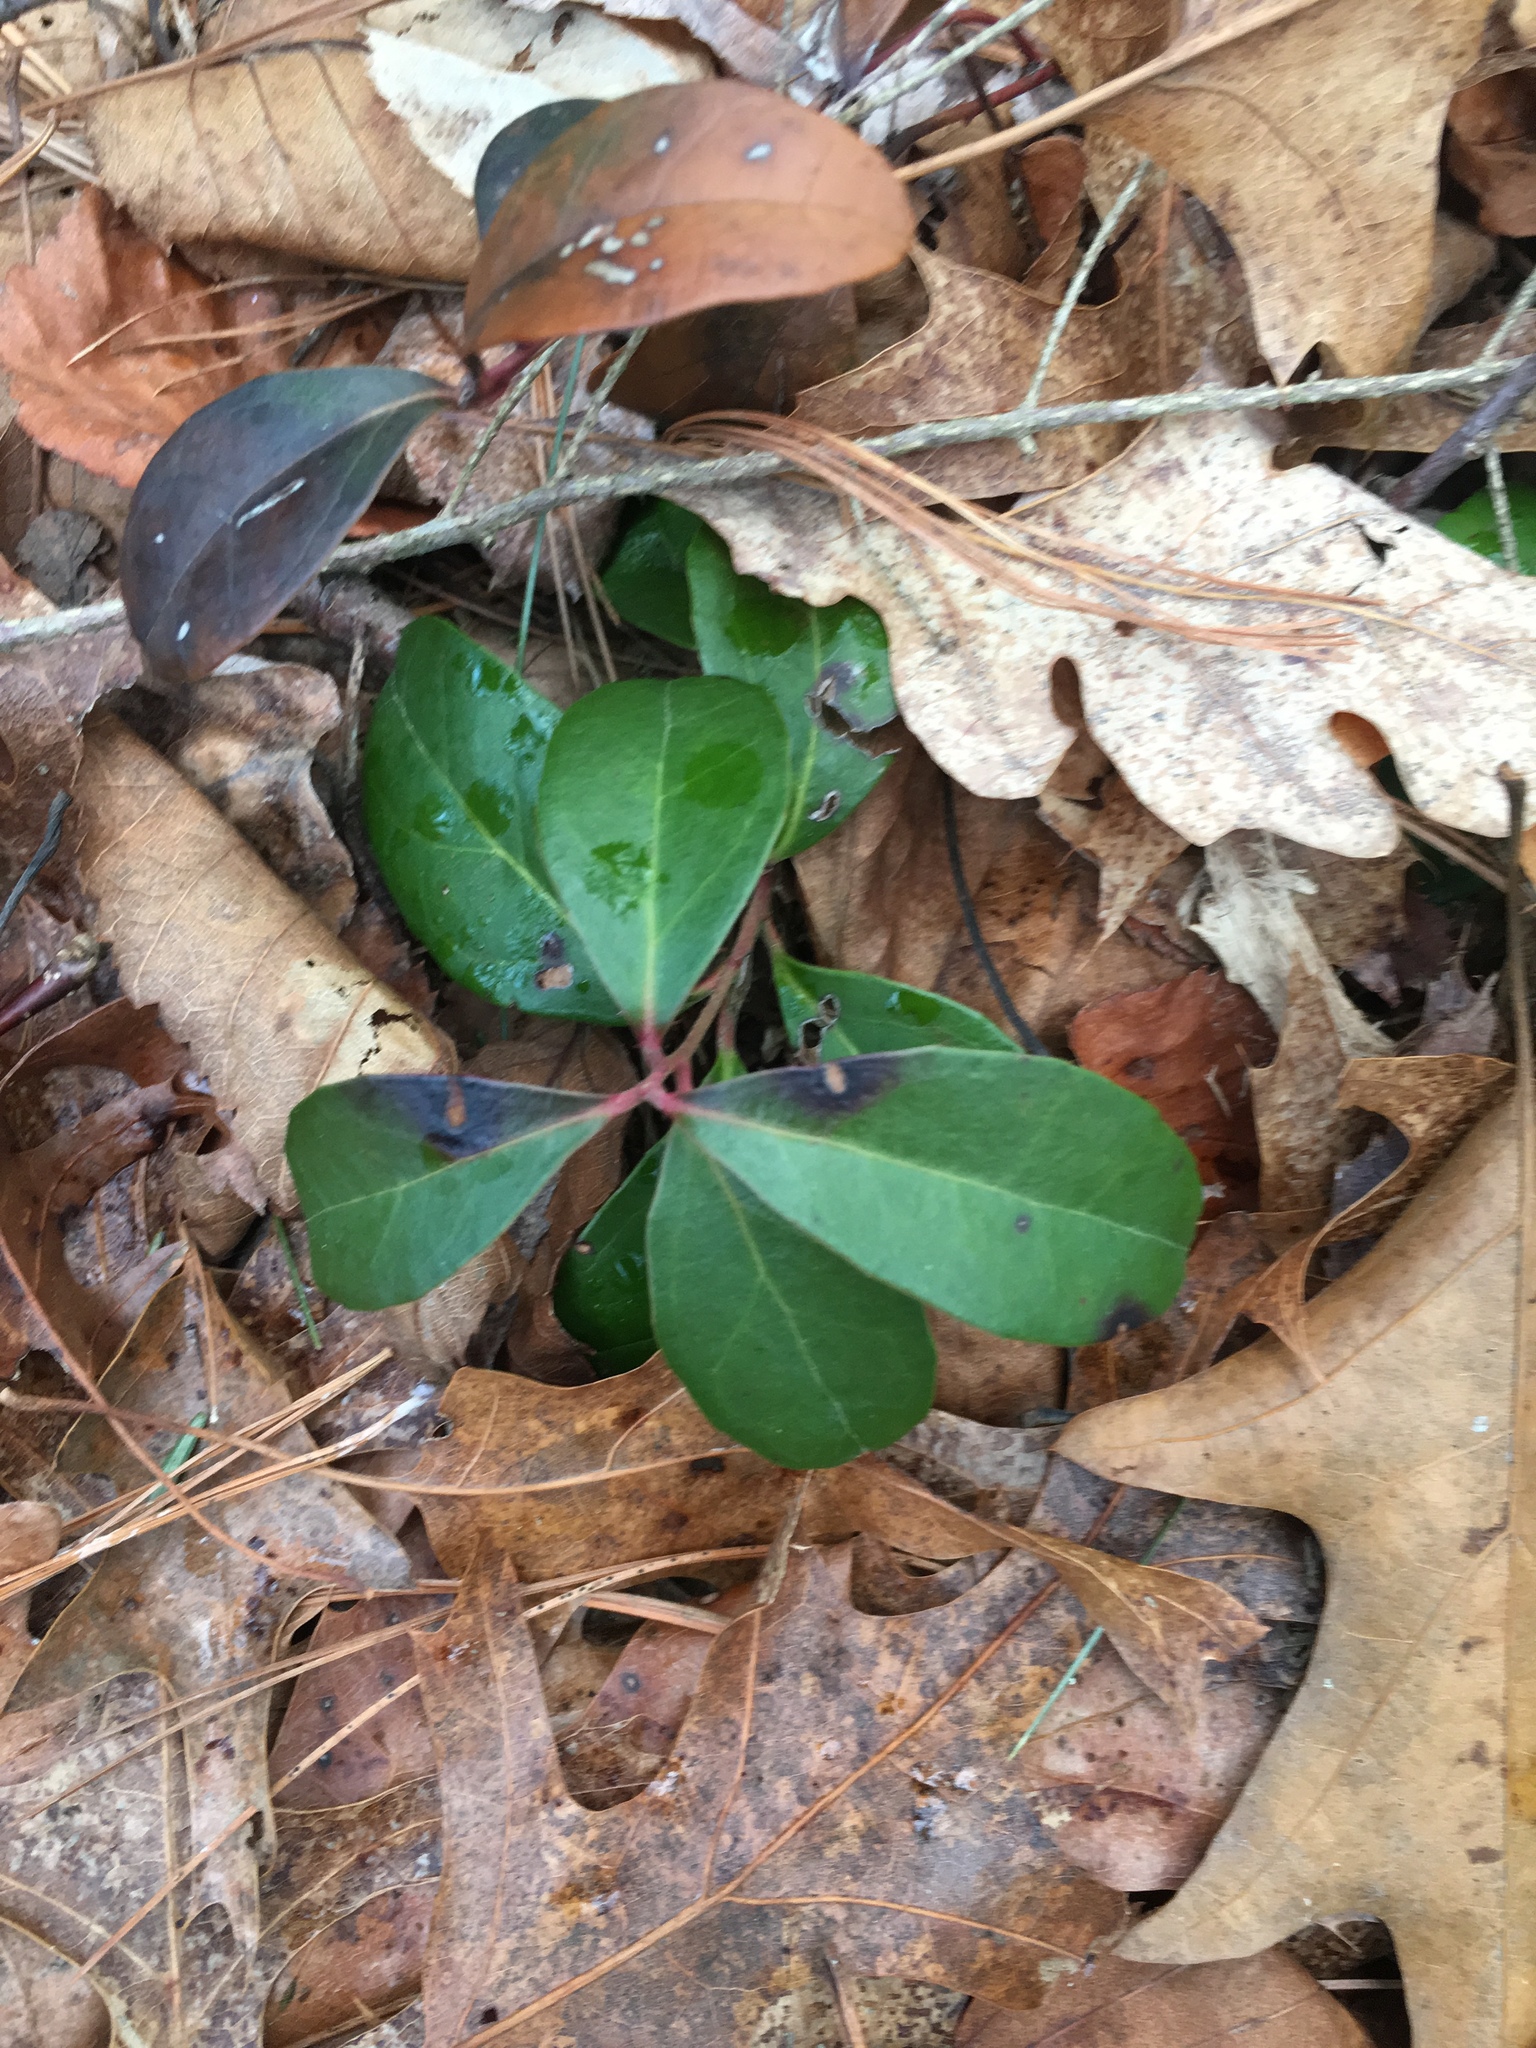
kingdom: Plantae
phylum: Tracheophyta
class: Magnoliopsida
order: Ericales
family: Ericaceae
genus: Gaultheria
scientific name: Gaultheria procumbens
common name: Checkerberry
